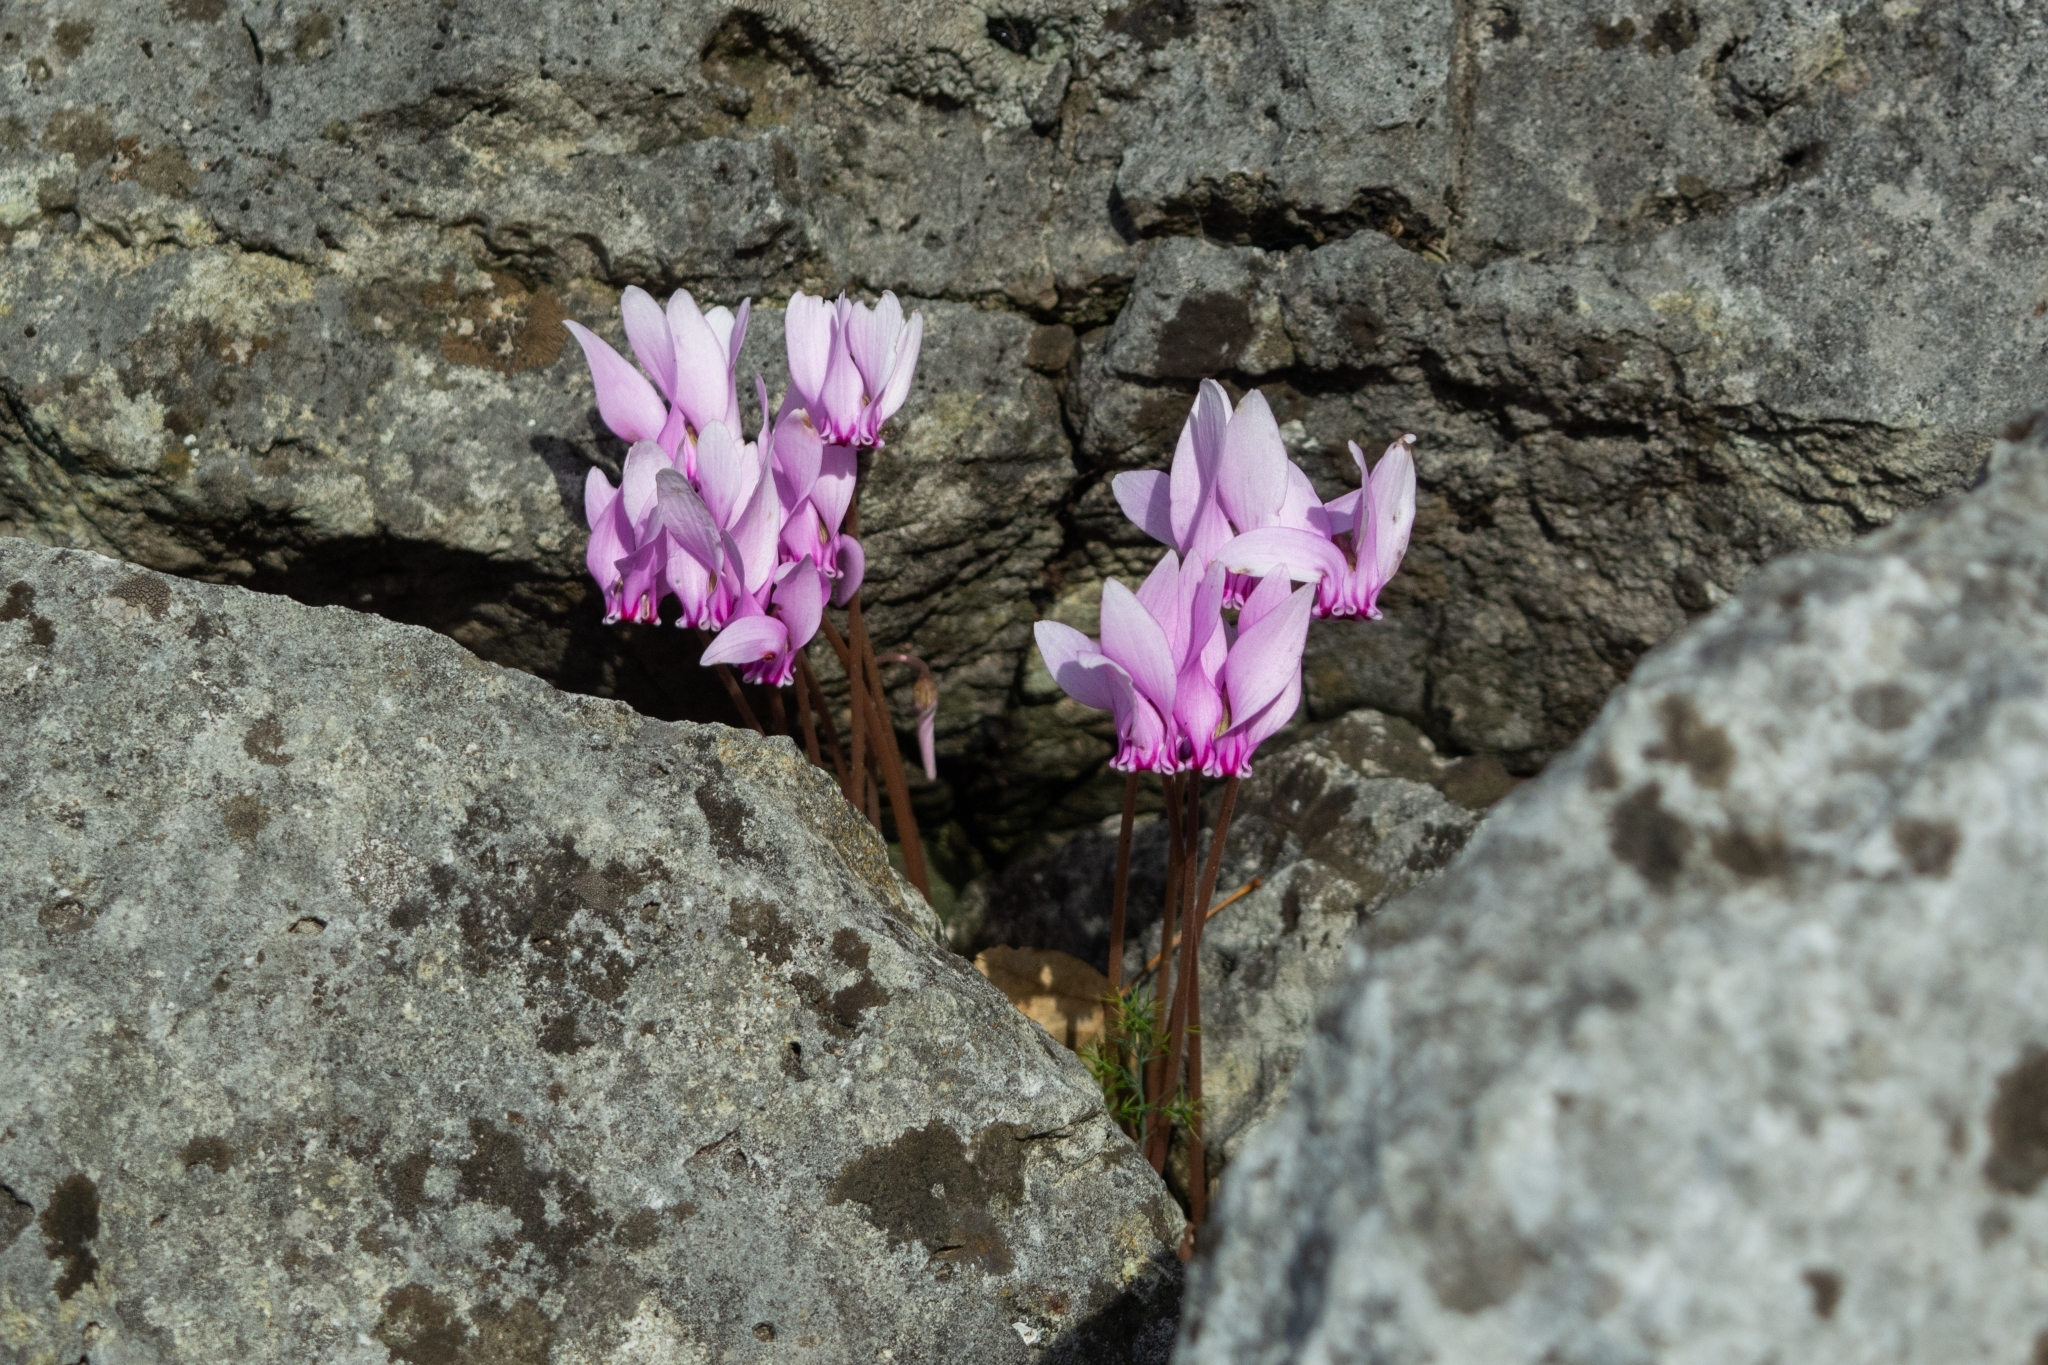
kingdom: Plantae
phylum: Tracheophyta
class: Magnoliopsida
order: Ericales
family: Primulaceae
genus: Cyclamen
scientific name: Cyclamen hederifolium
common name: Sowbread
